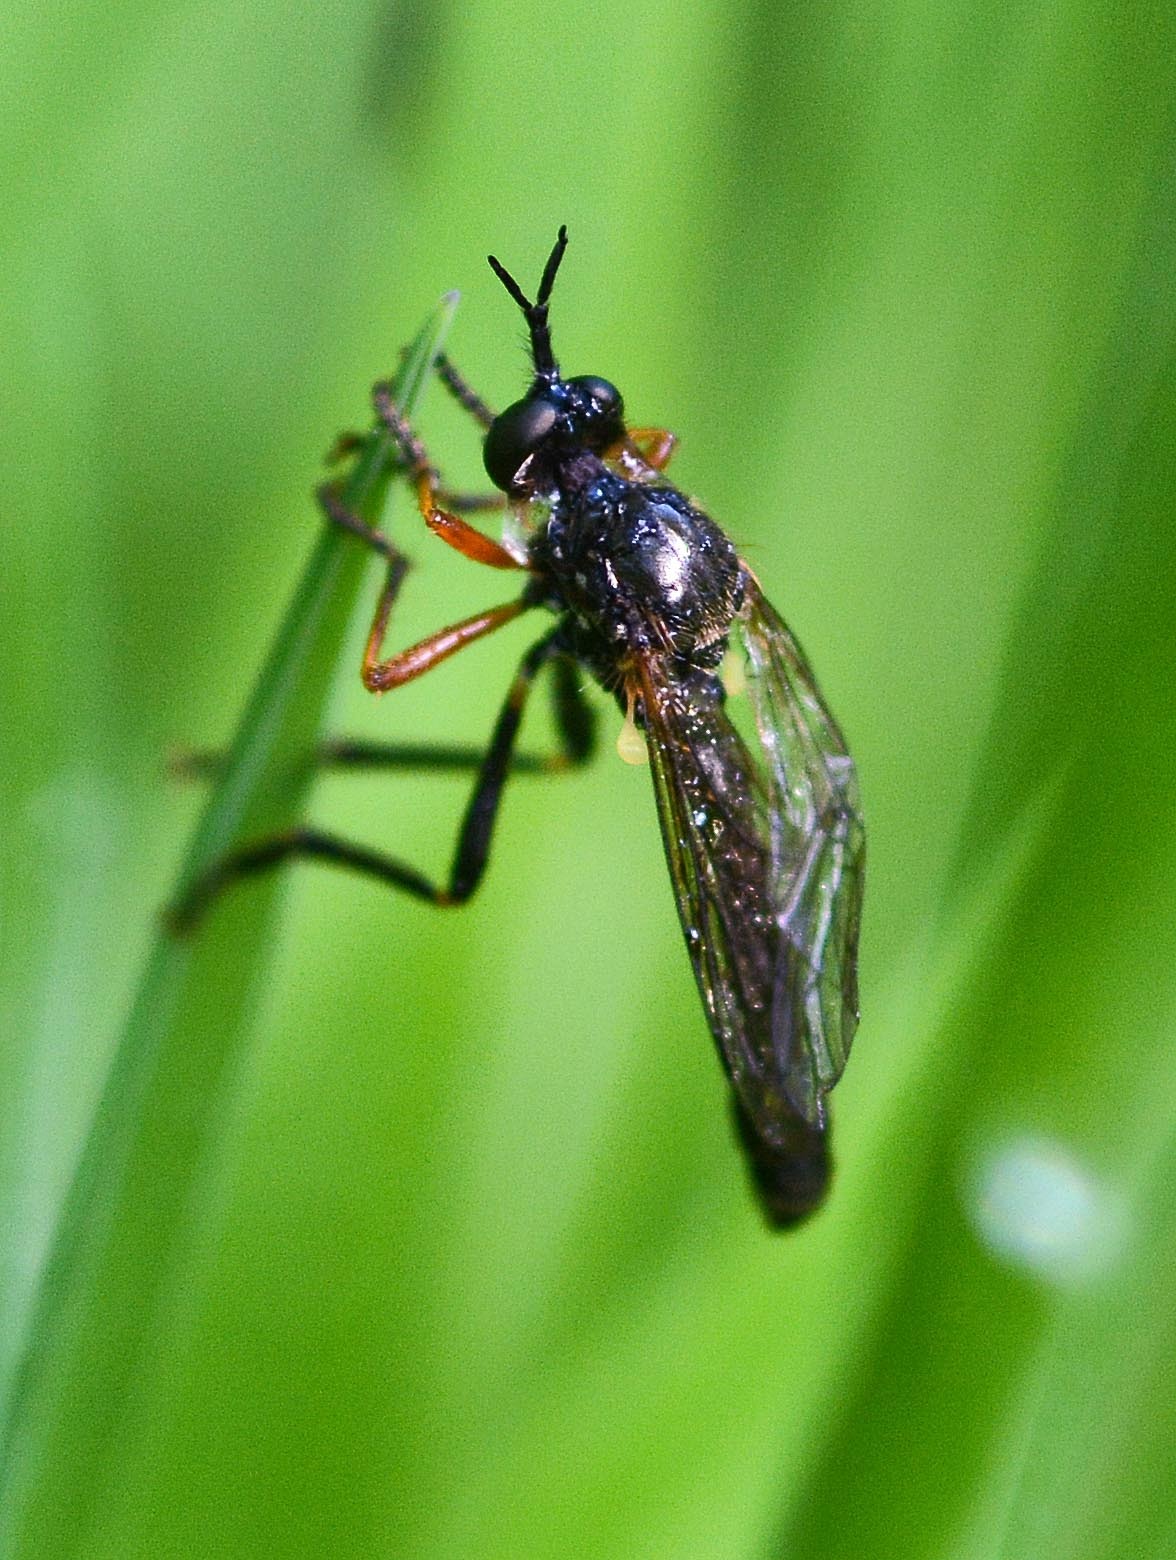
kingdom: Animalia
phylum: Arthropoda
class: Insecta
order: Diptera
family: Asilidae
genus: Dioctria
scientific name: Dioctria rufipes
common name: Common red-legged robberfly
